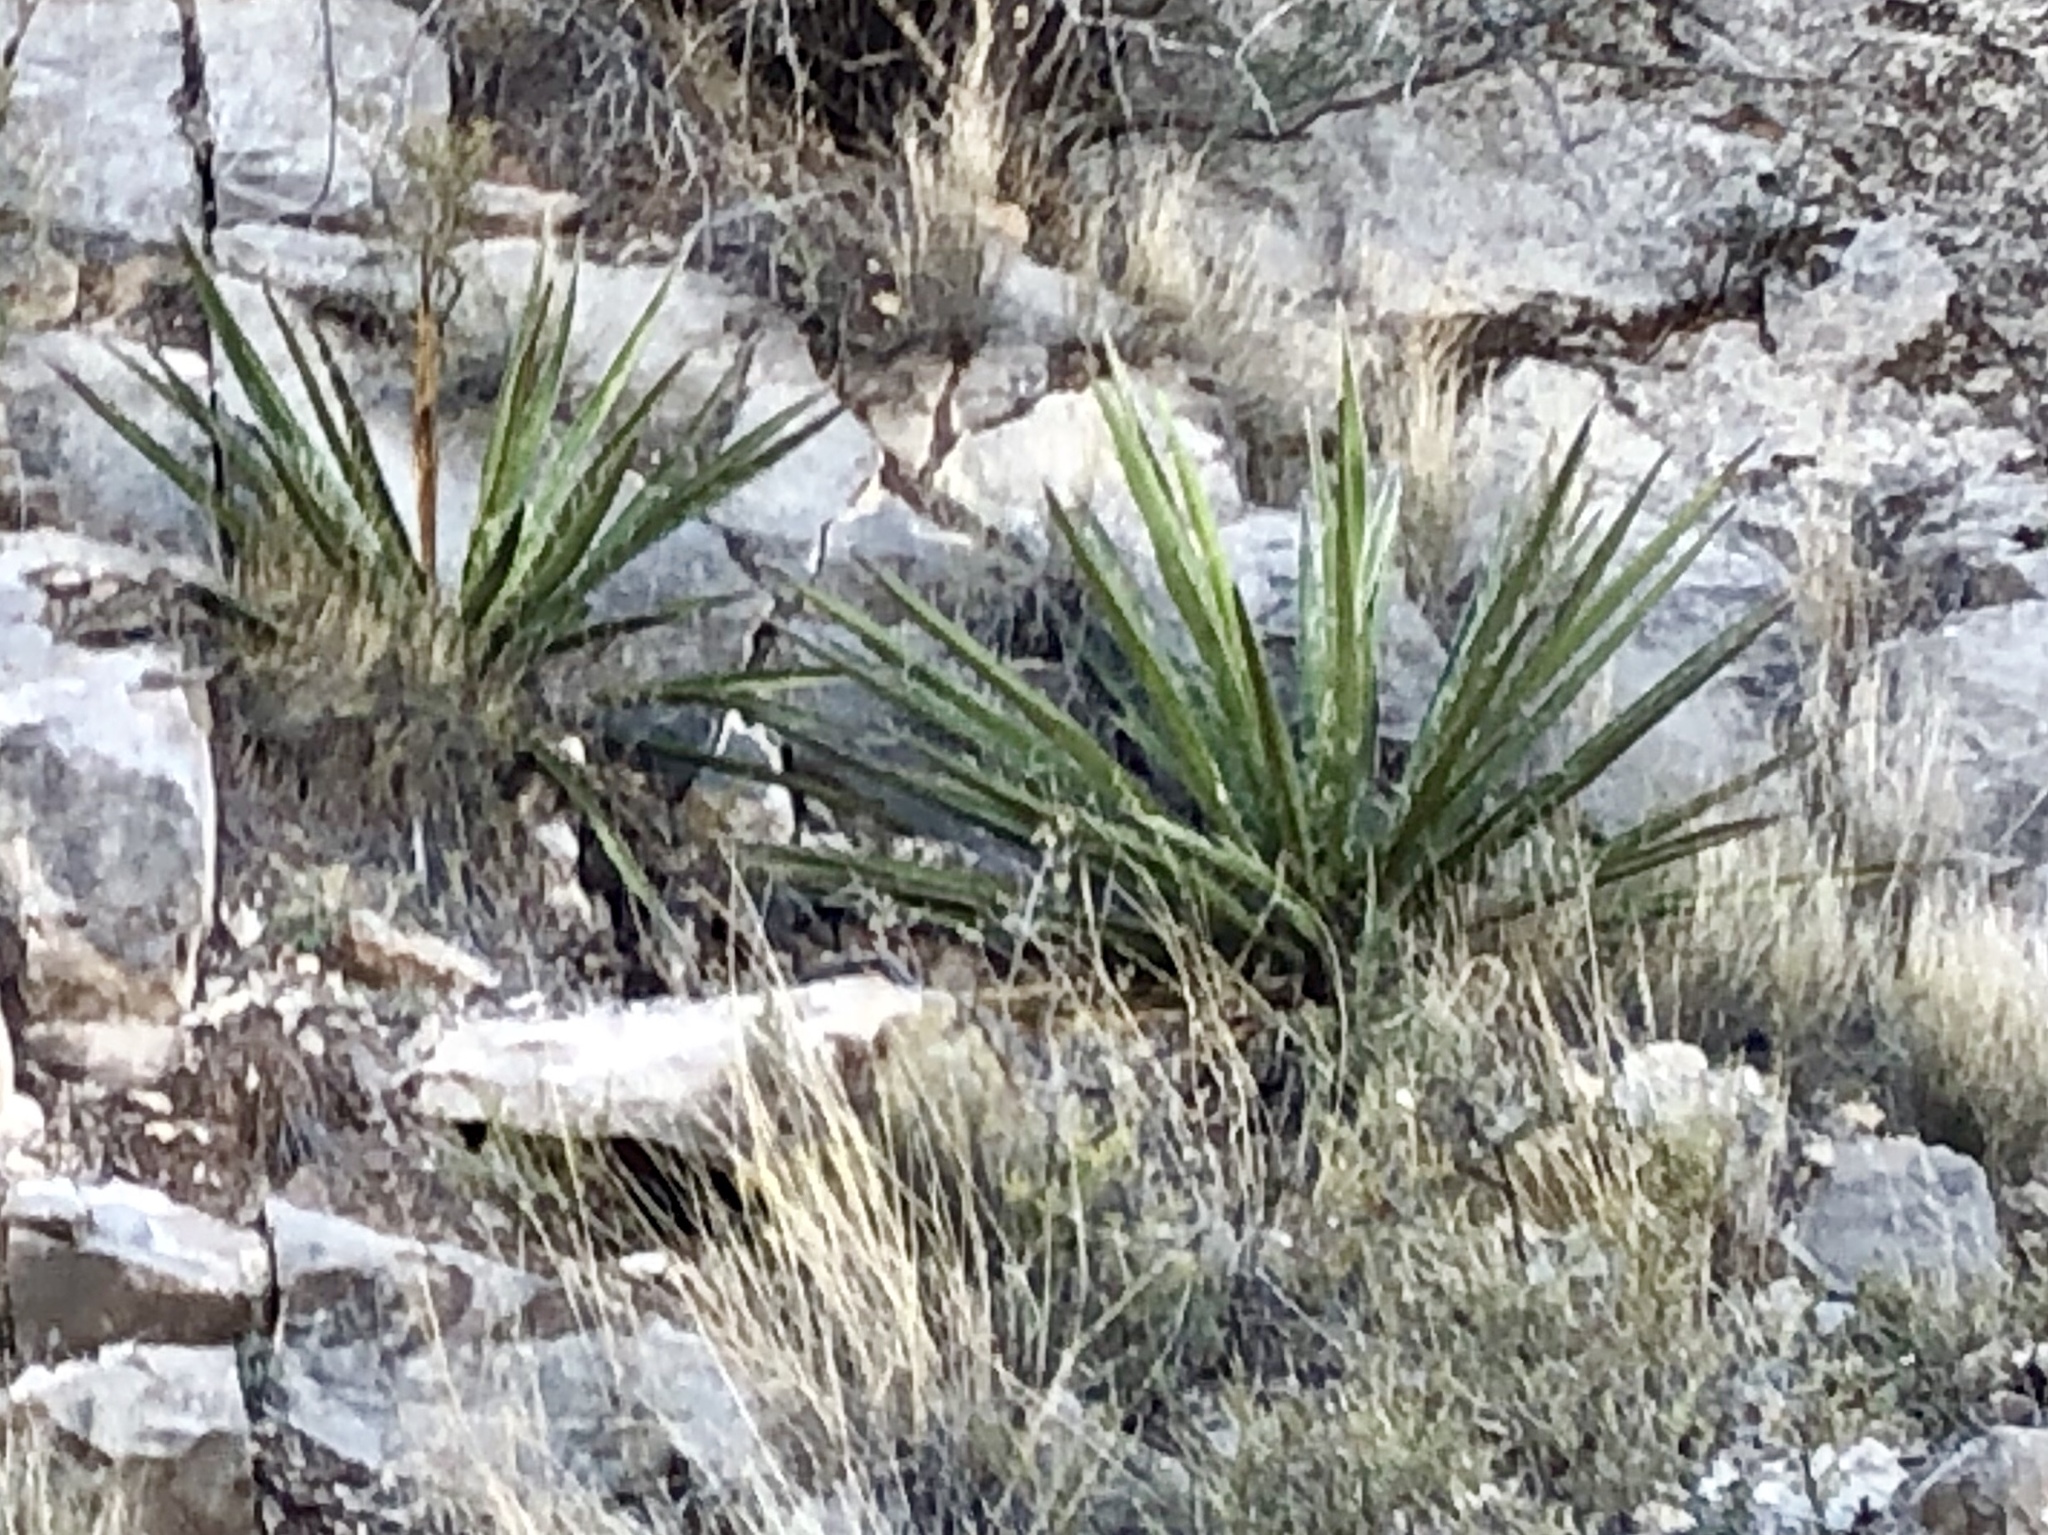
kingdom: Plantae
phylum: Tracheophyta
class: Liliopsida
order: Asparagales
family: Asparagaceae
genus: Yucca
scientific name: Yucca baccata
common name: Banana yucca
